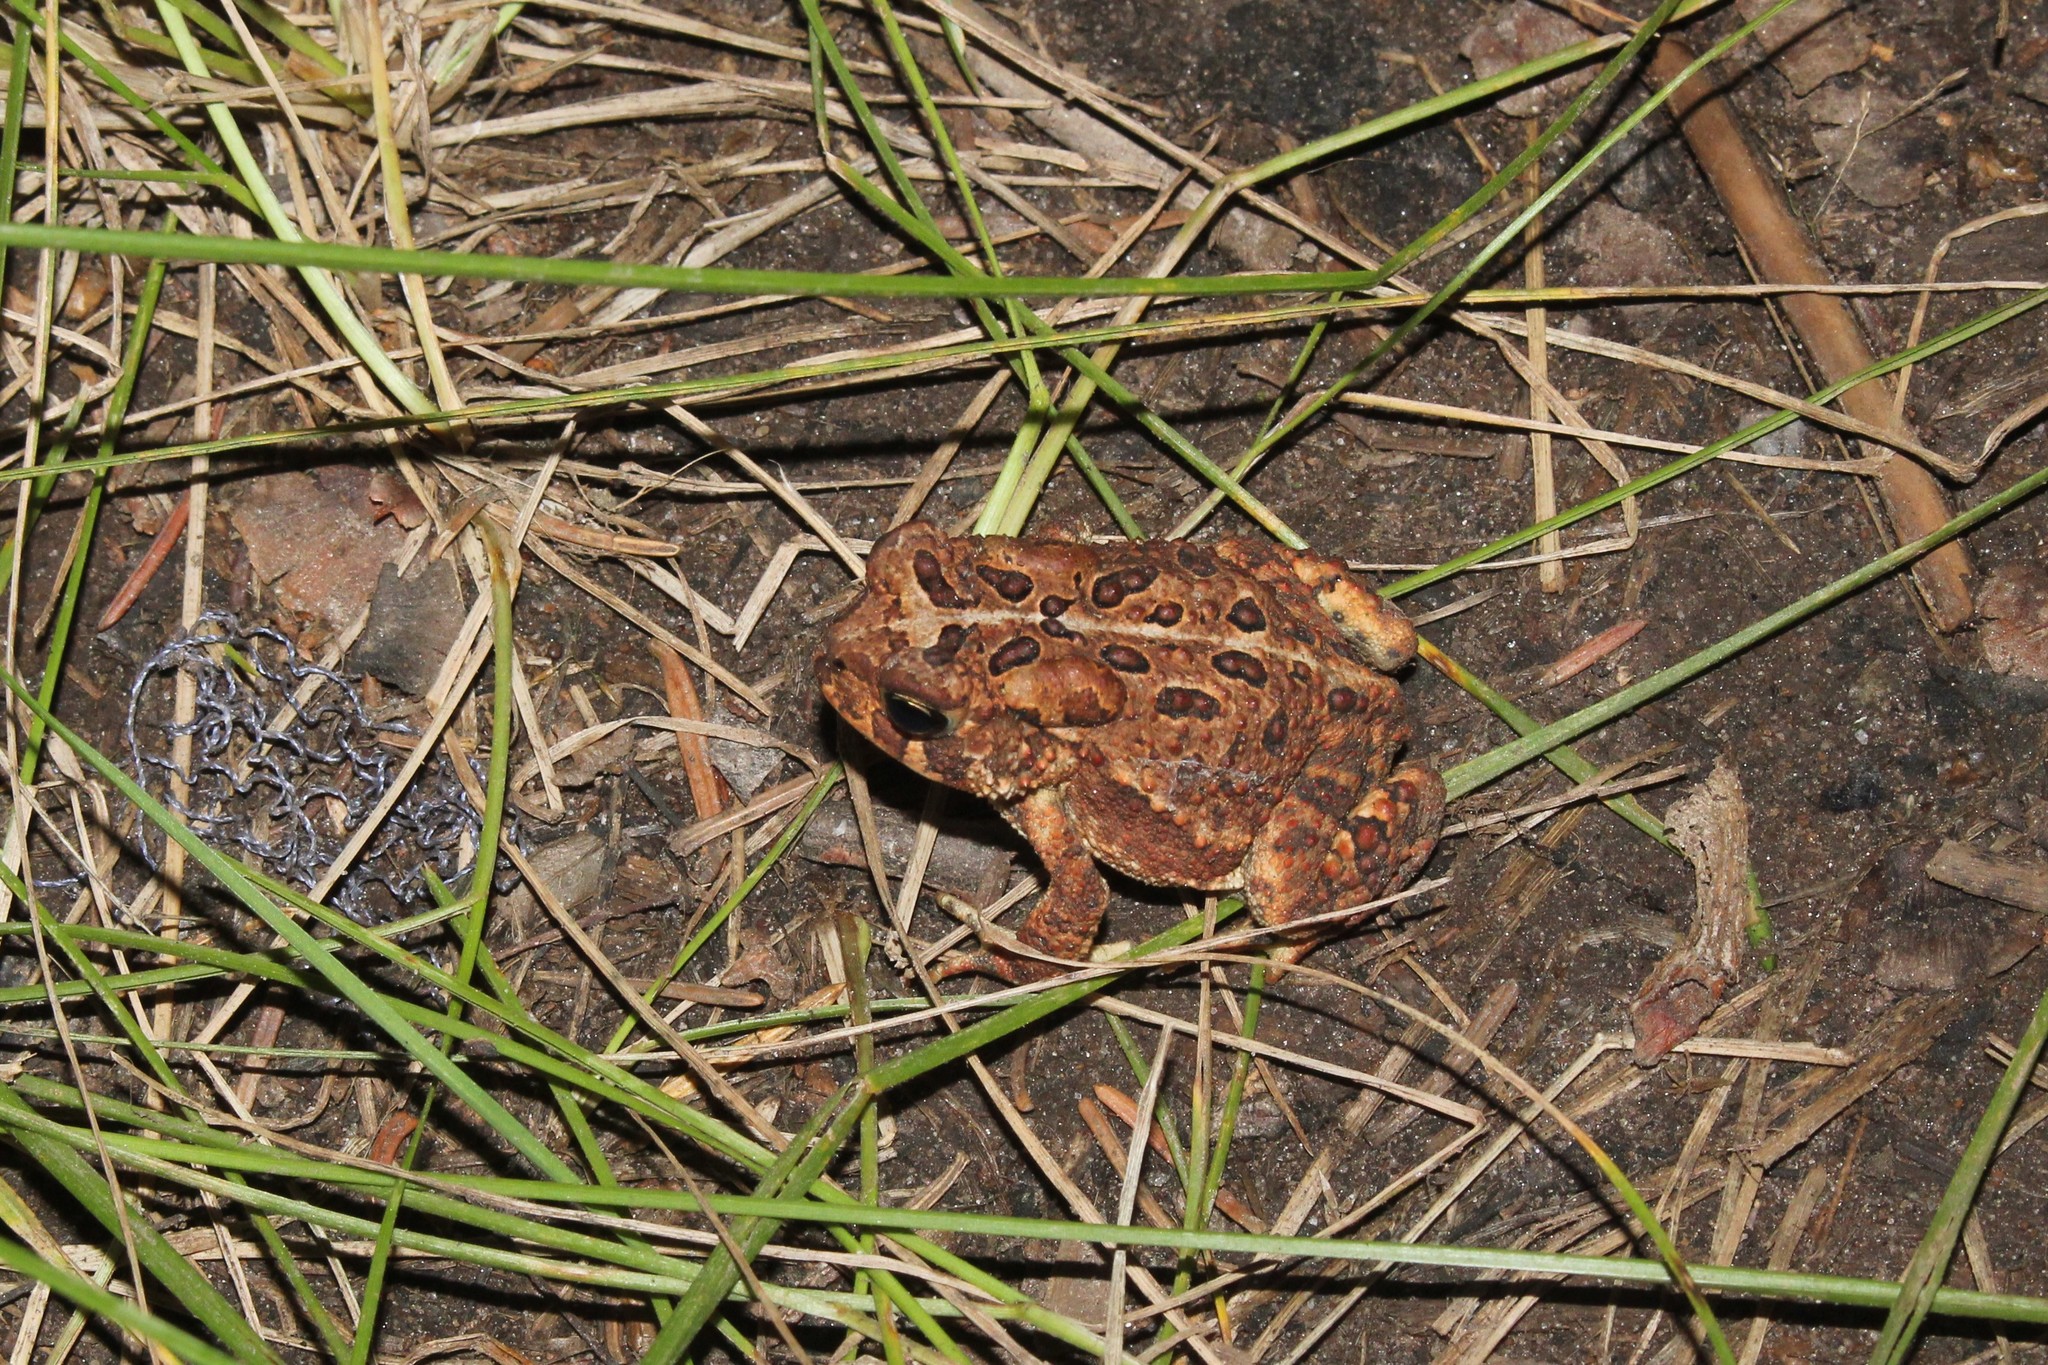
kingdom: Animalia
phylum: Chordata
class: Amphibia
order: Anura
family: Bufonidae
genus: Anaxyrus
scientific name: Anaxyrus americanus
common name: American toad
